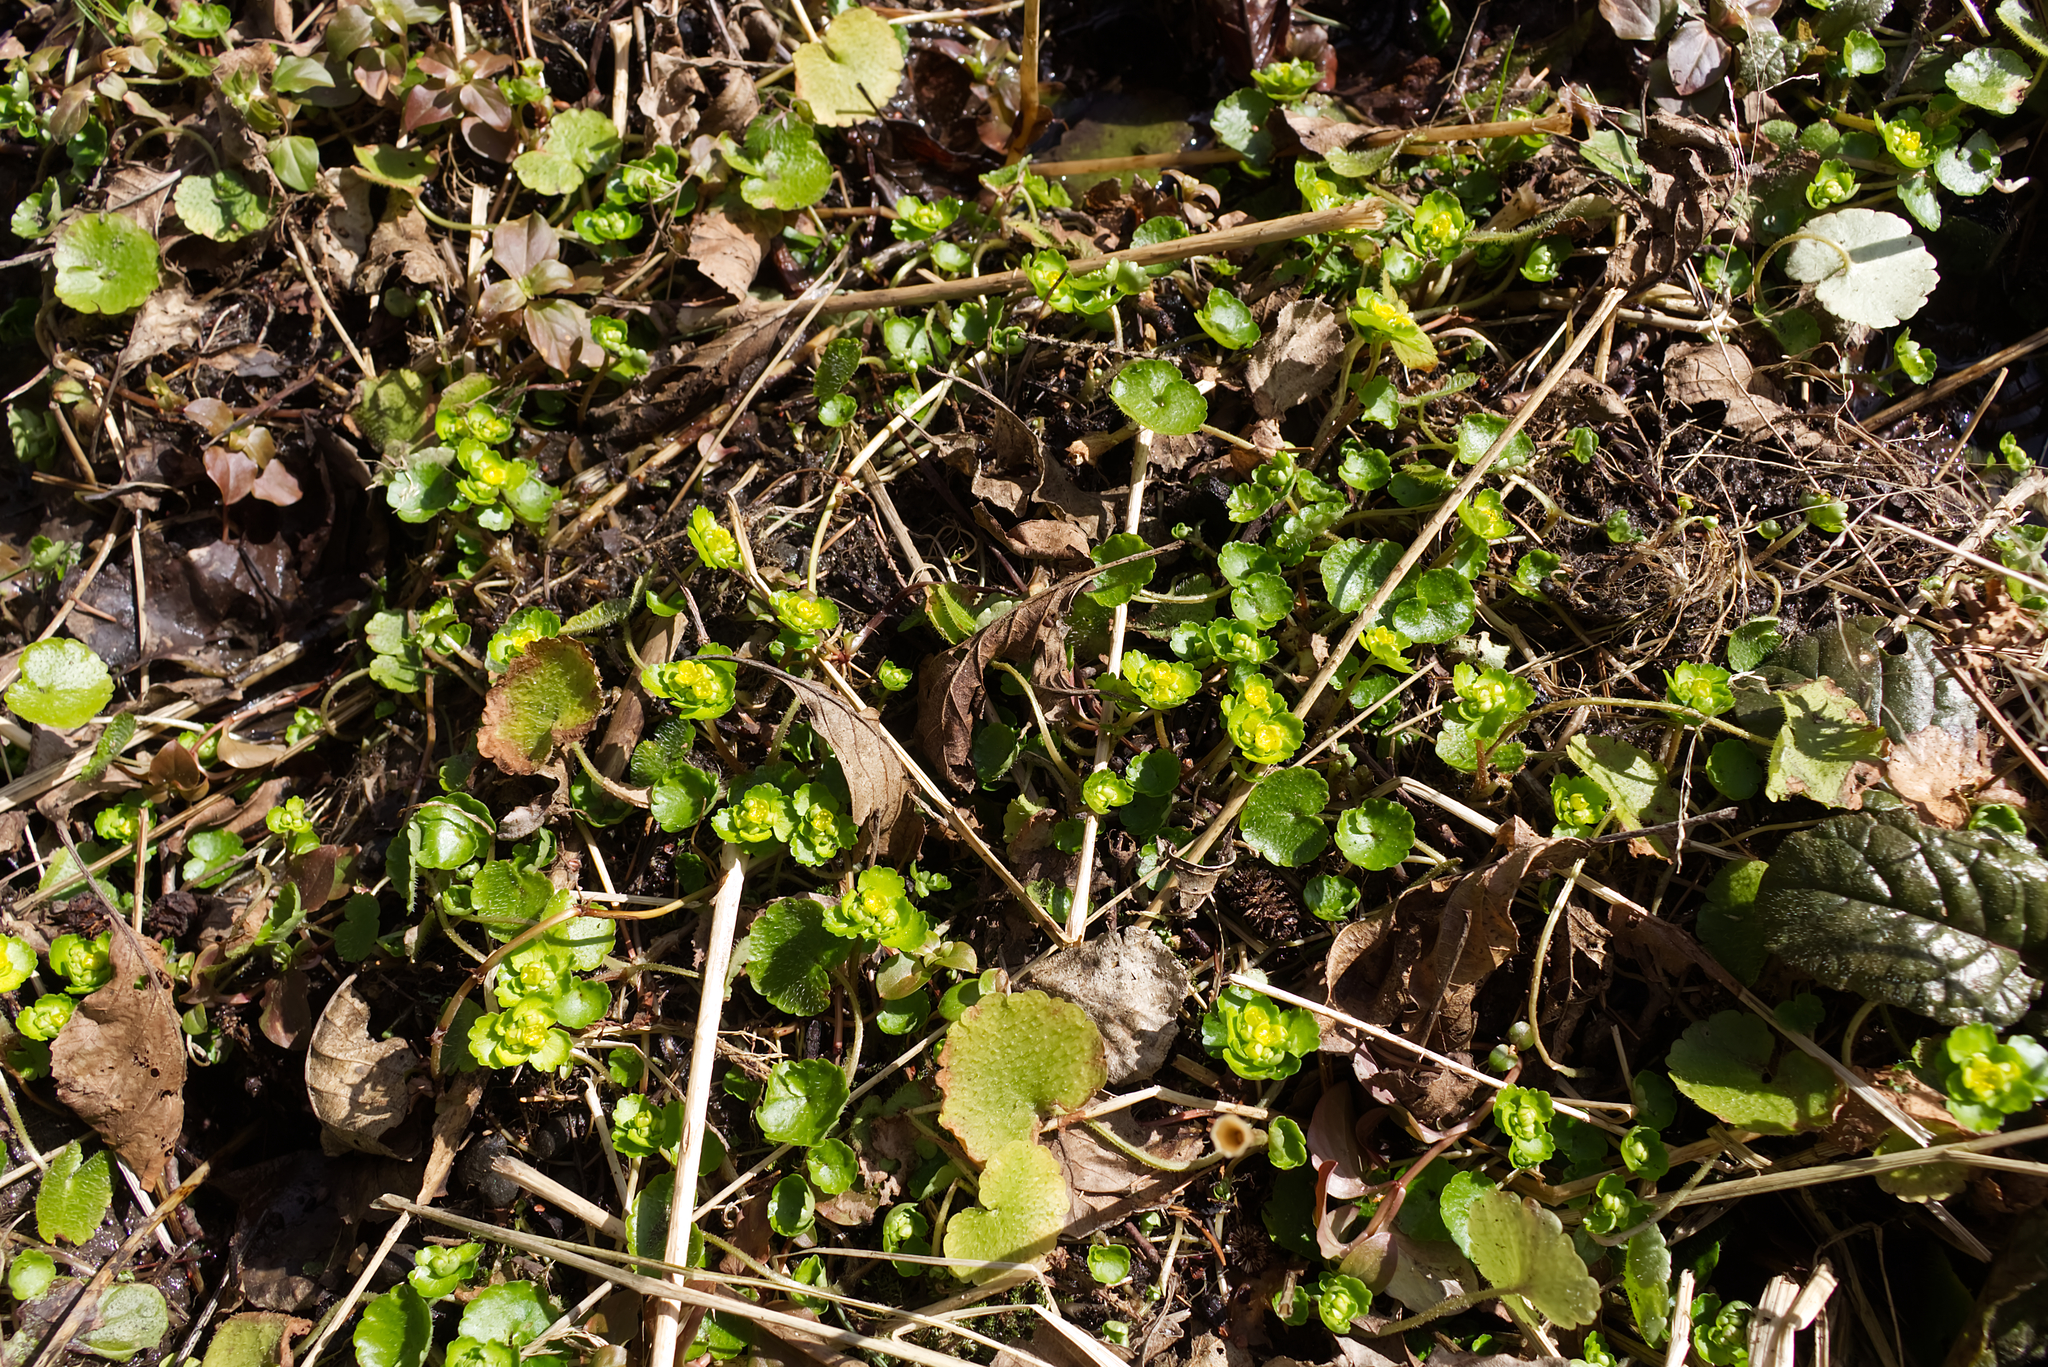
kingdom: Plantae
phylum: Tracheophyta
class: Magnoliopsida
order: Saxifragales
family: Saxifragaceae
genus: Chrysosplenium
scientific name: Chrysosplenium alternifolium
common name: Alternate-leaved golden-saxifrage
